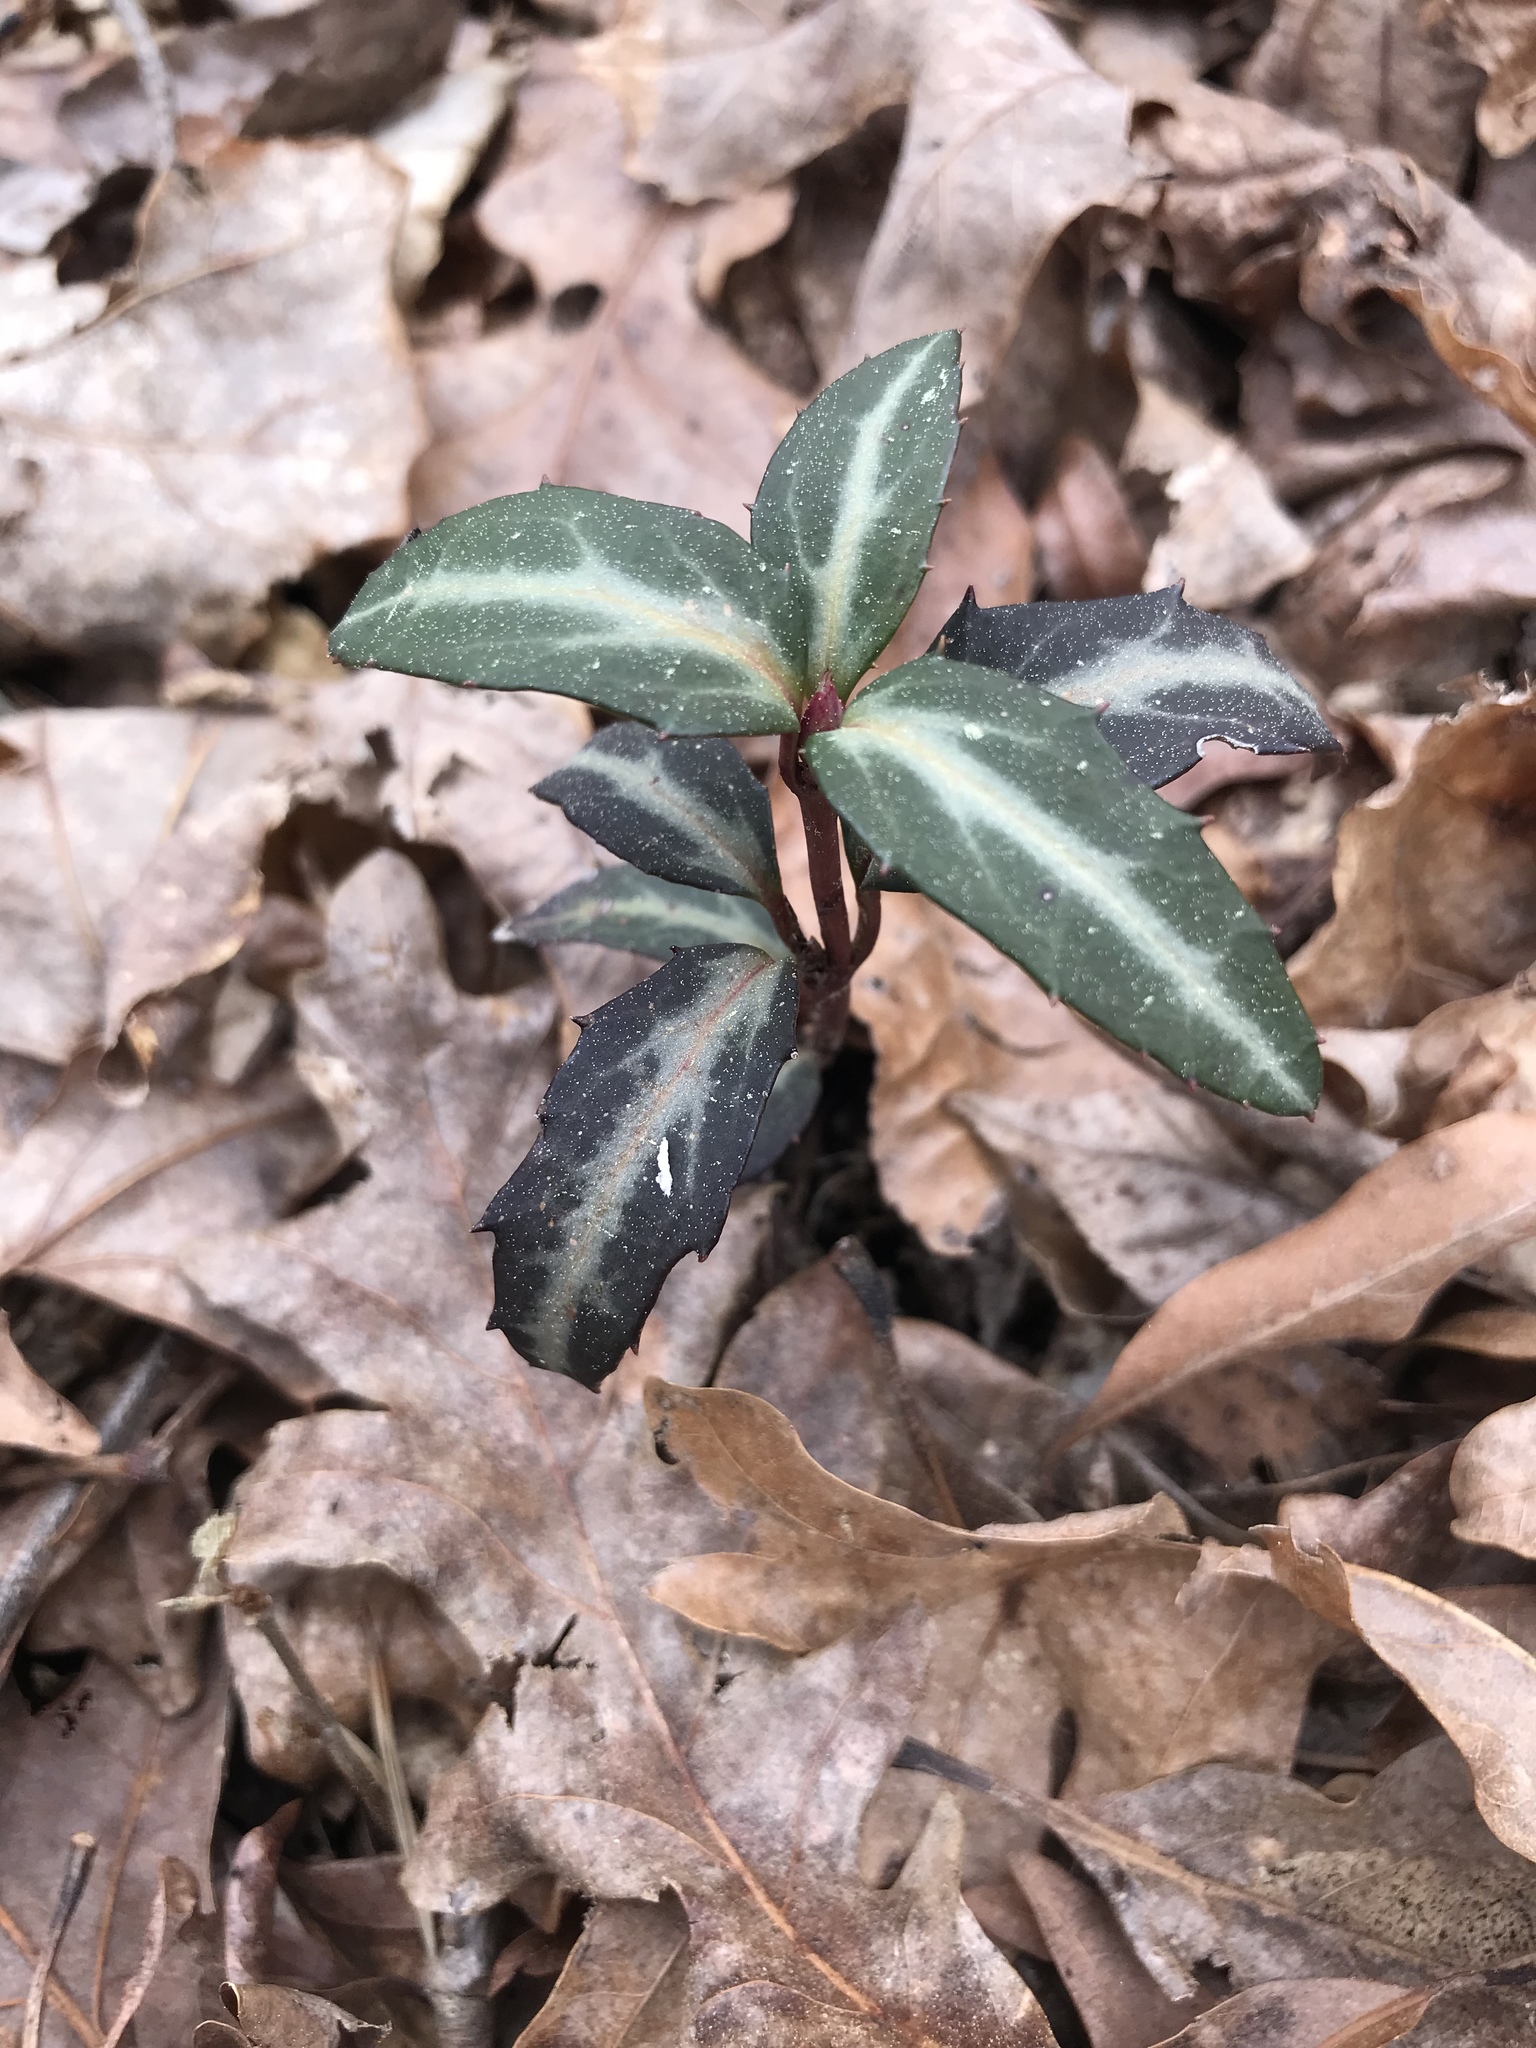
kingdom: Plantae
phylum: Tracheophyta
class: Magnoliopsida
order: Ericales
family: Ericaceae
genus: Chimaphila
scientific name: Chimaphila maculata
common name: Spotted pipsissewa
